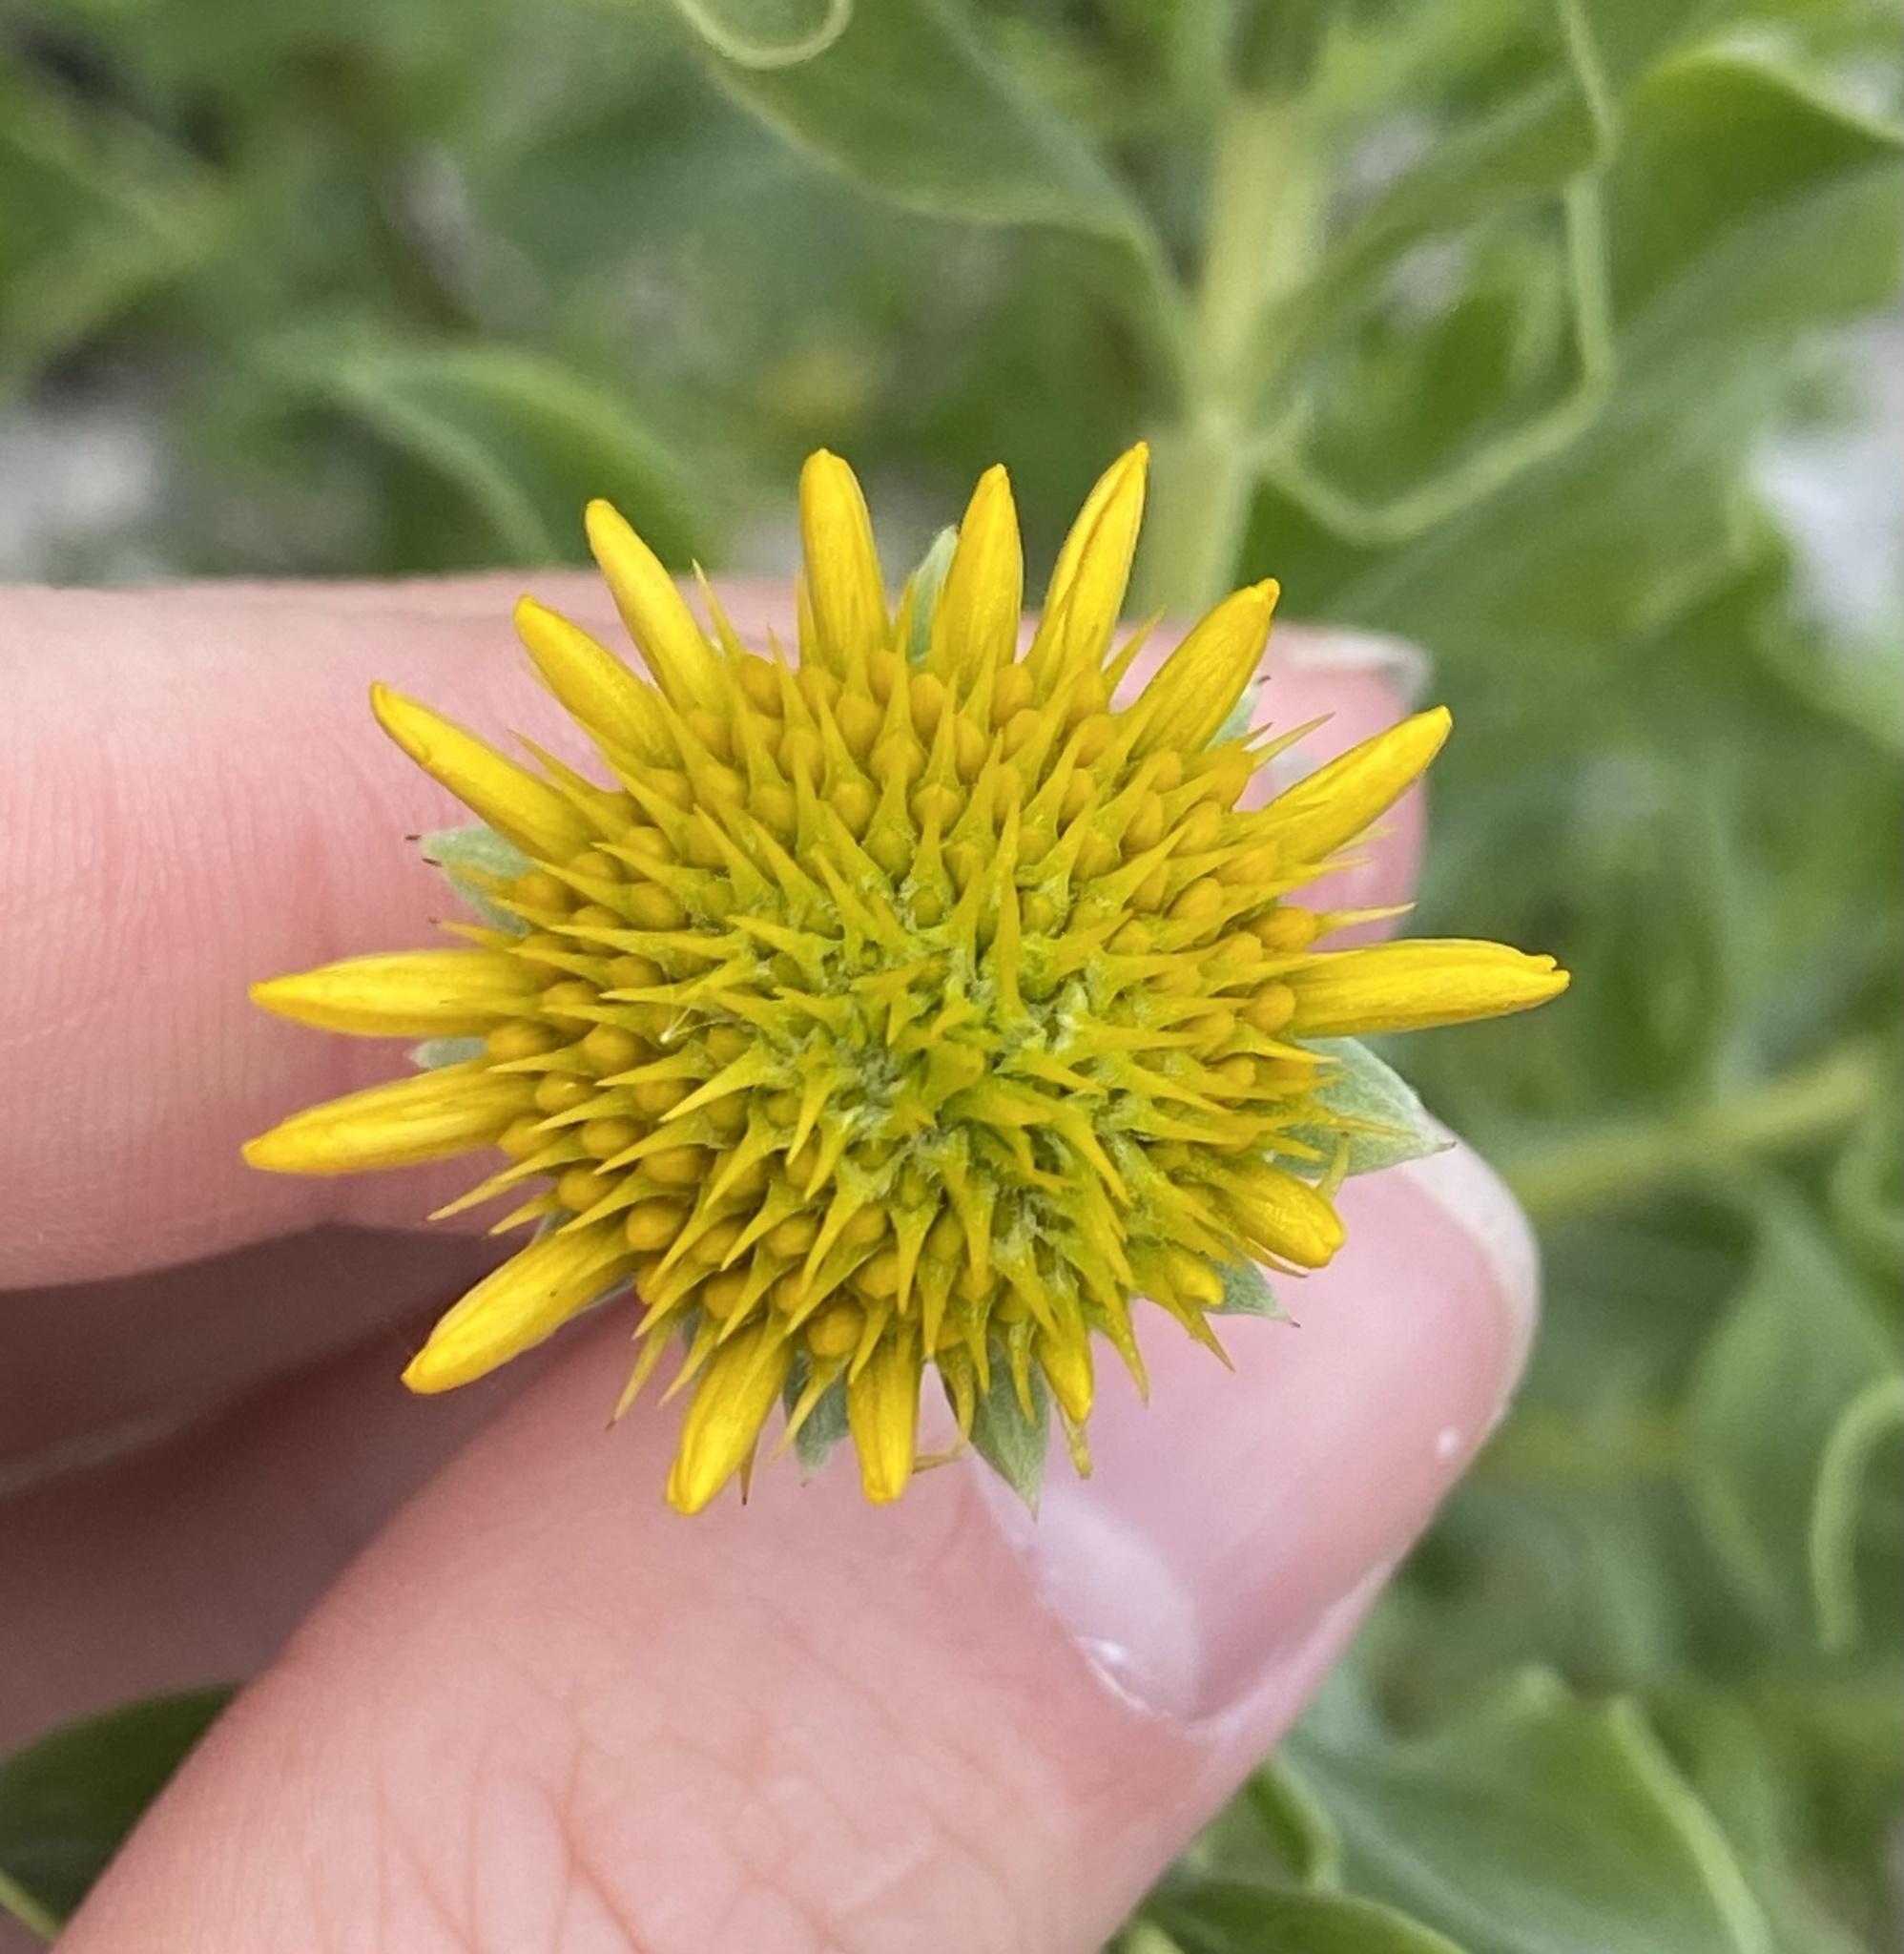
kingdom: Plantae
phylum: Tracheophyta
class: Magnoliopsida
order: Asterales
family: Asteraceae
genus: Borrichia
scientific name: Borrichia frutescens
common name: Sea oxeye
